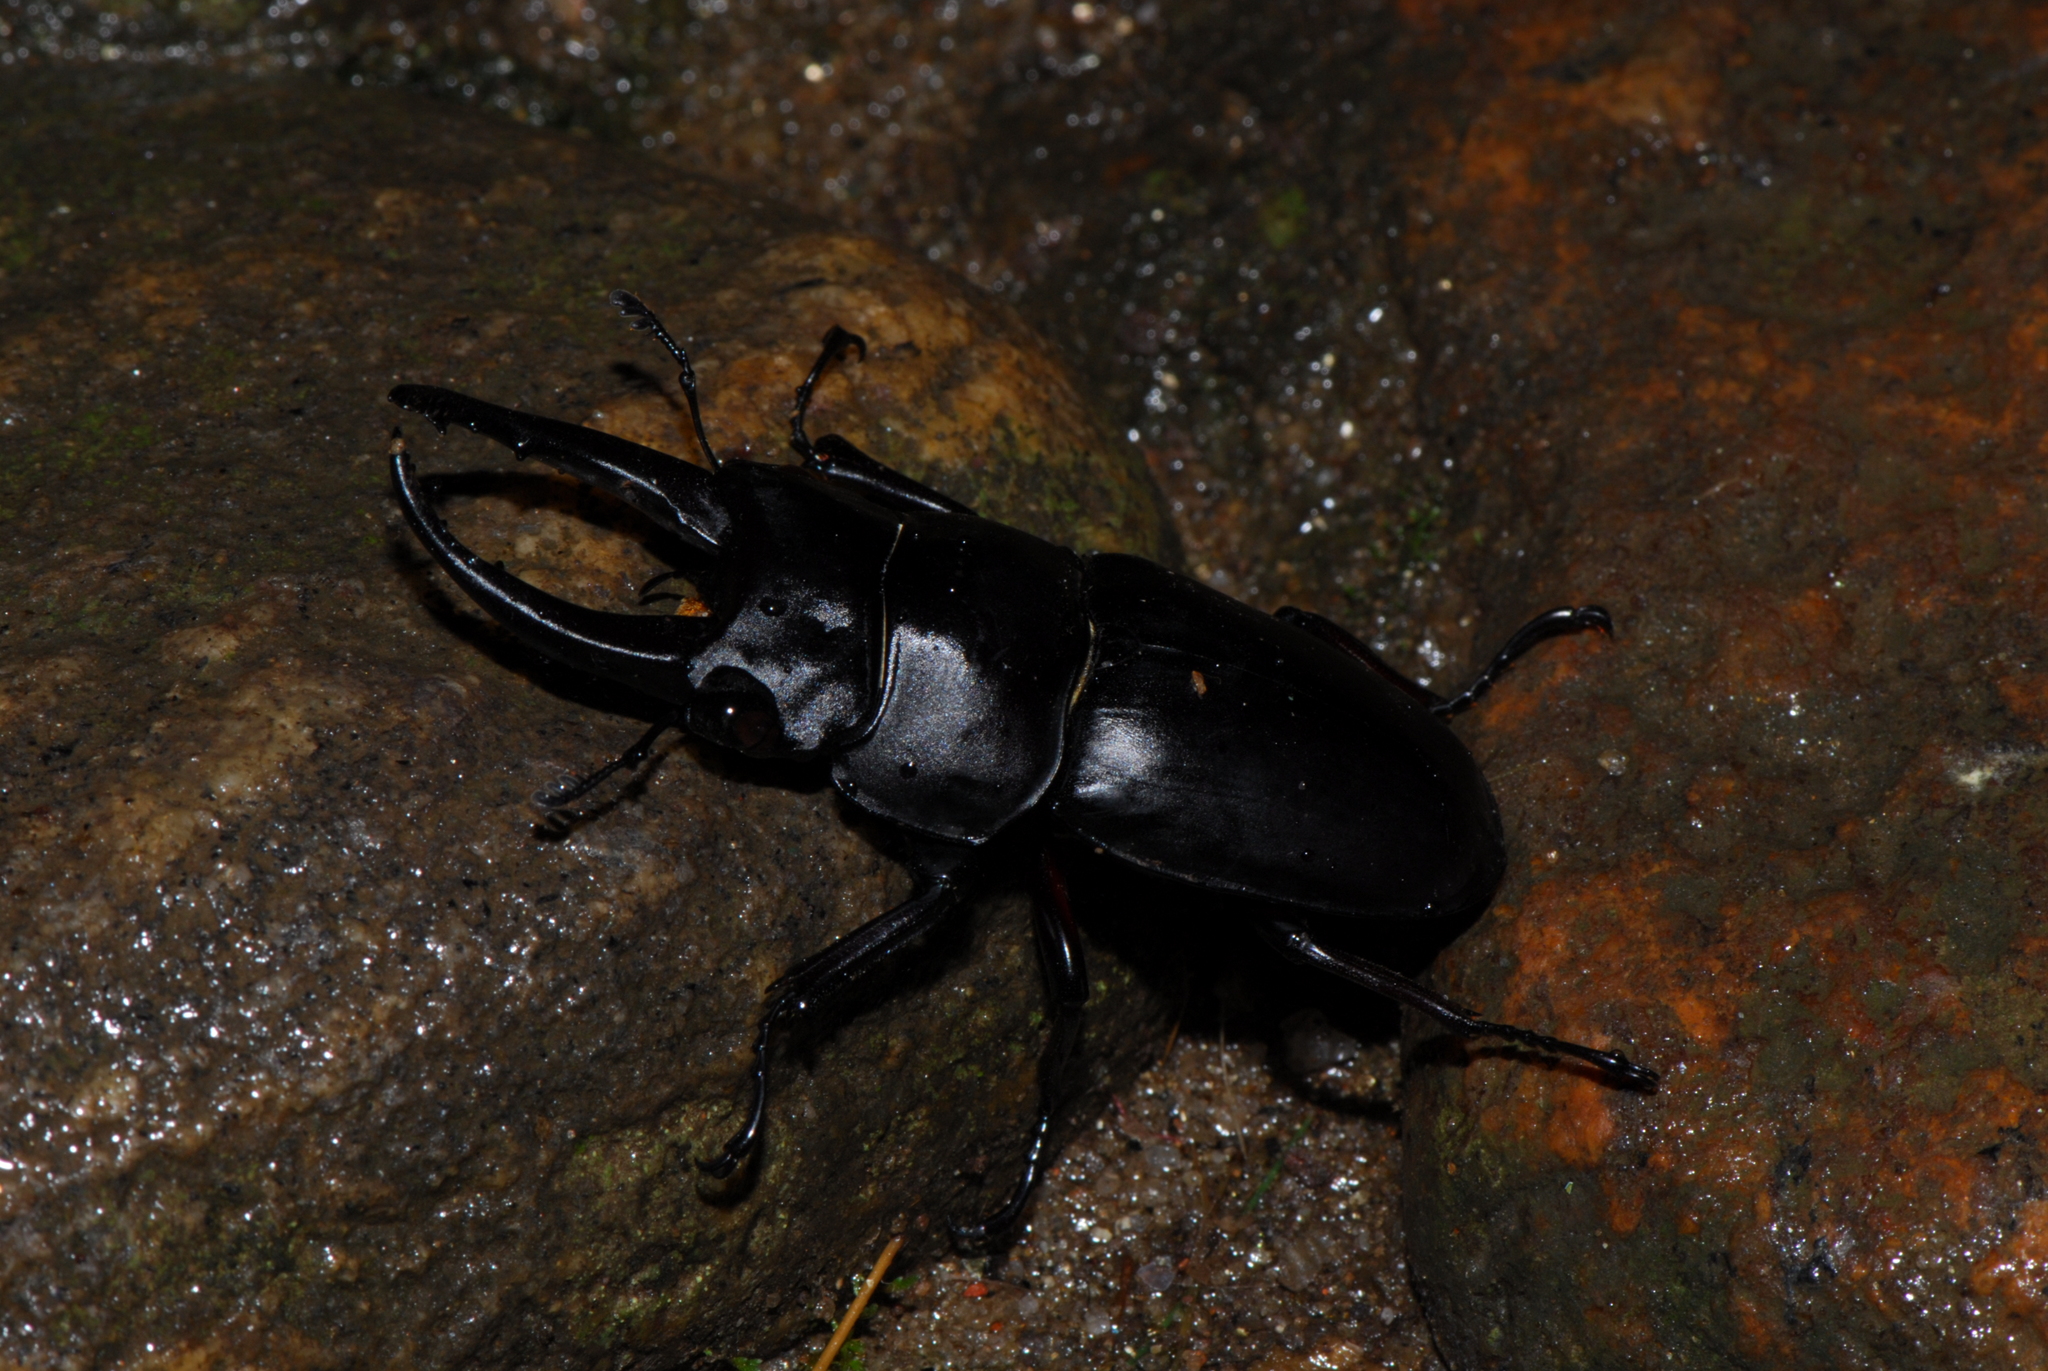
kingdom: Animalia
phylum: Arthropoda
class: Insecta
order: Coleoptera
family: Lucanidae
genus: Prosopocoilus
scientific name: Prosopocoilus serricornis
